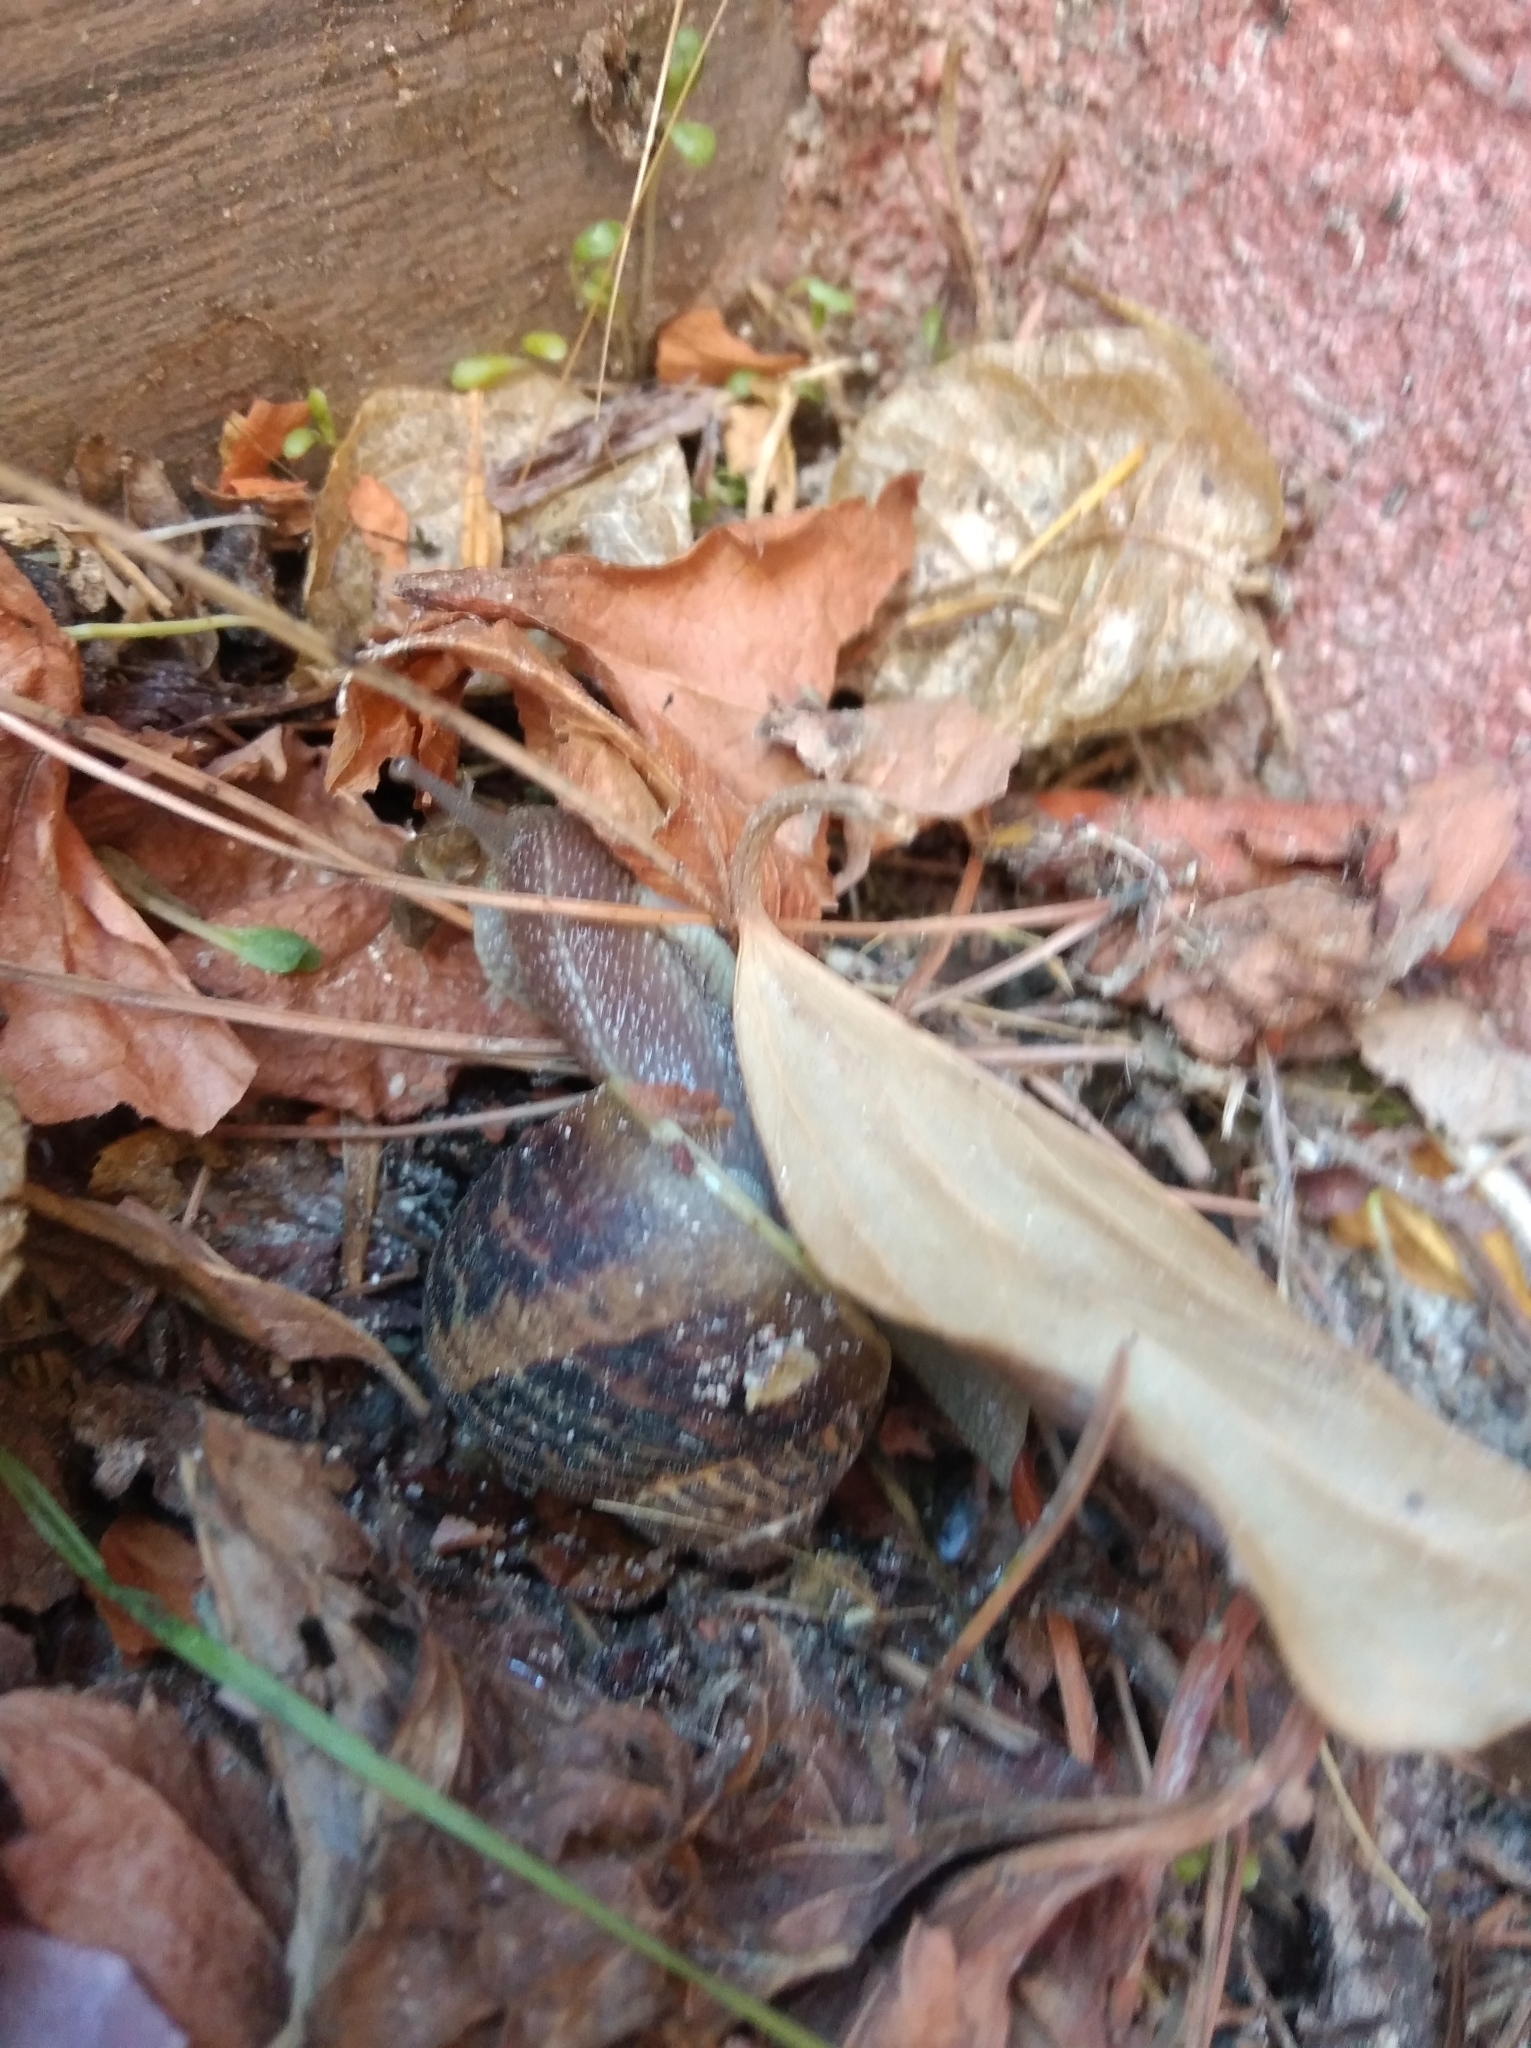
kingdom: Animalia
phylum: Mollusca
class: Gastropoda
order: Stylommatophora
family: Helicidae
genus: Cornu
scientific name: Cornu aspersum
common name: Brown garden snail
